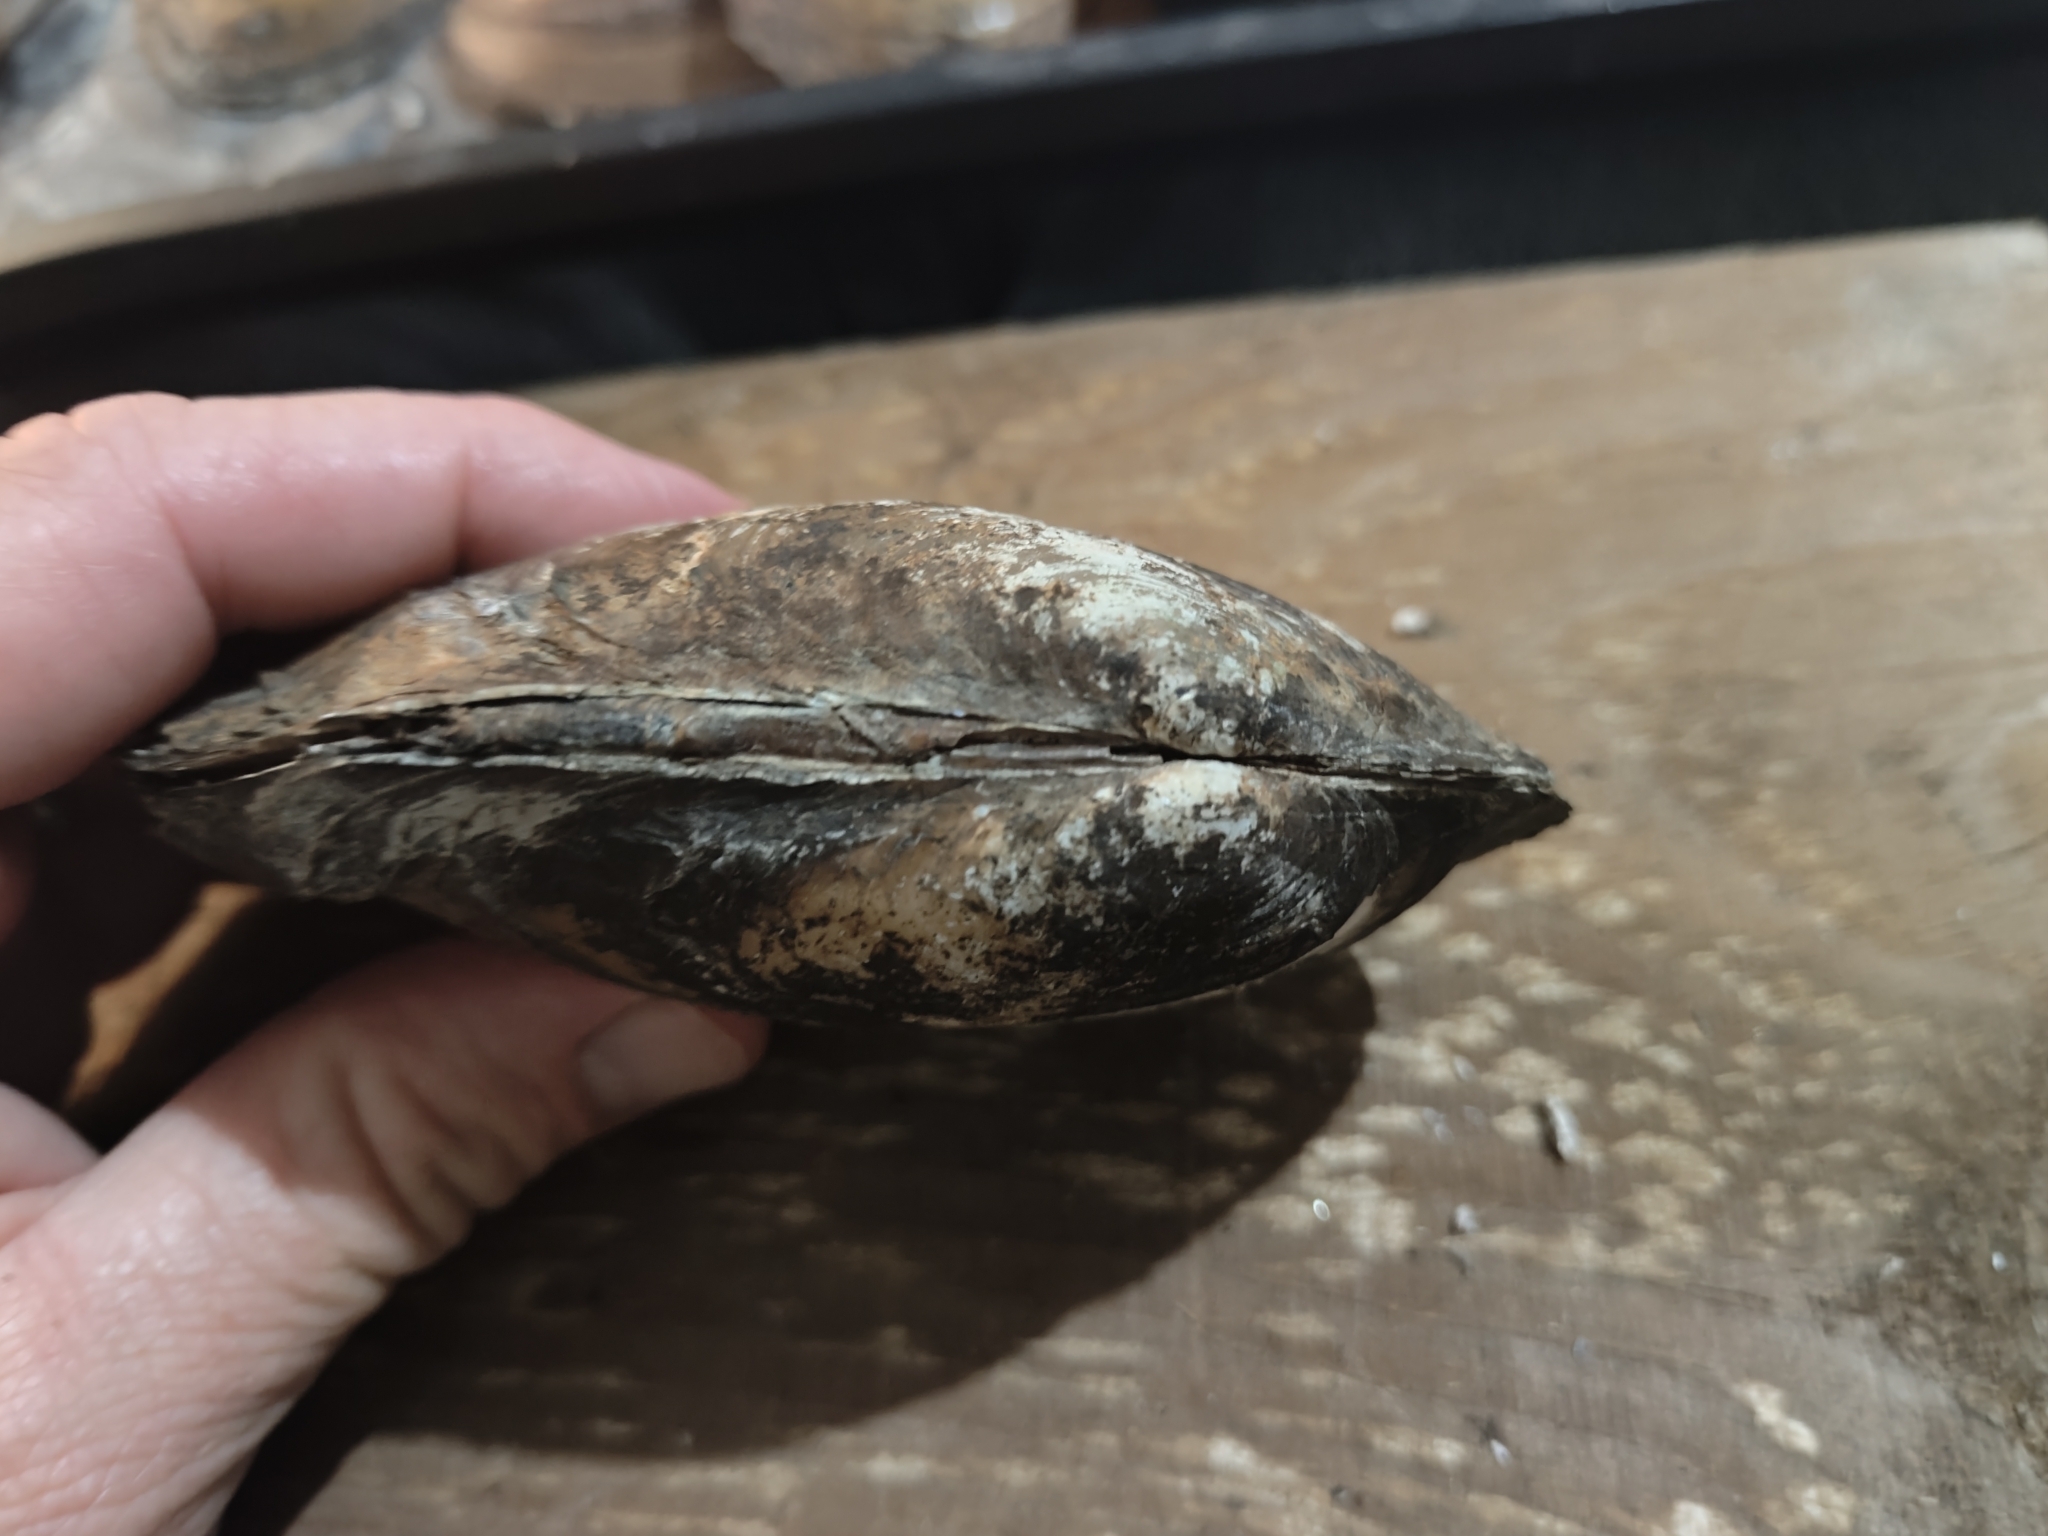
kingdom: Animalia
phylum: Mollusca
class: Bivalvia
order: Unionida
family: Unionidae
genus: Potamilus
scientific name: Potamilus fragilis
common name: Fragile papershell
